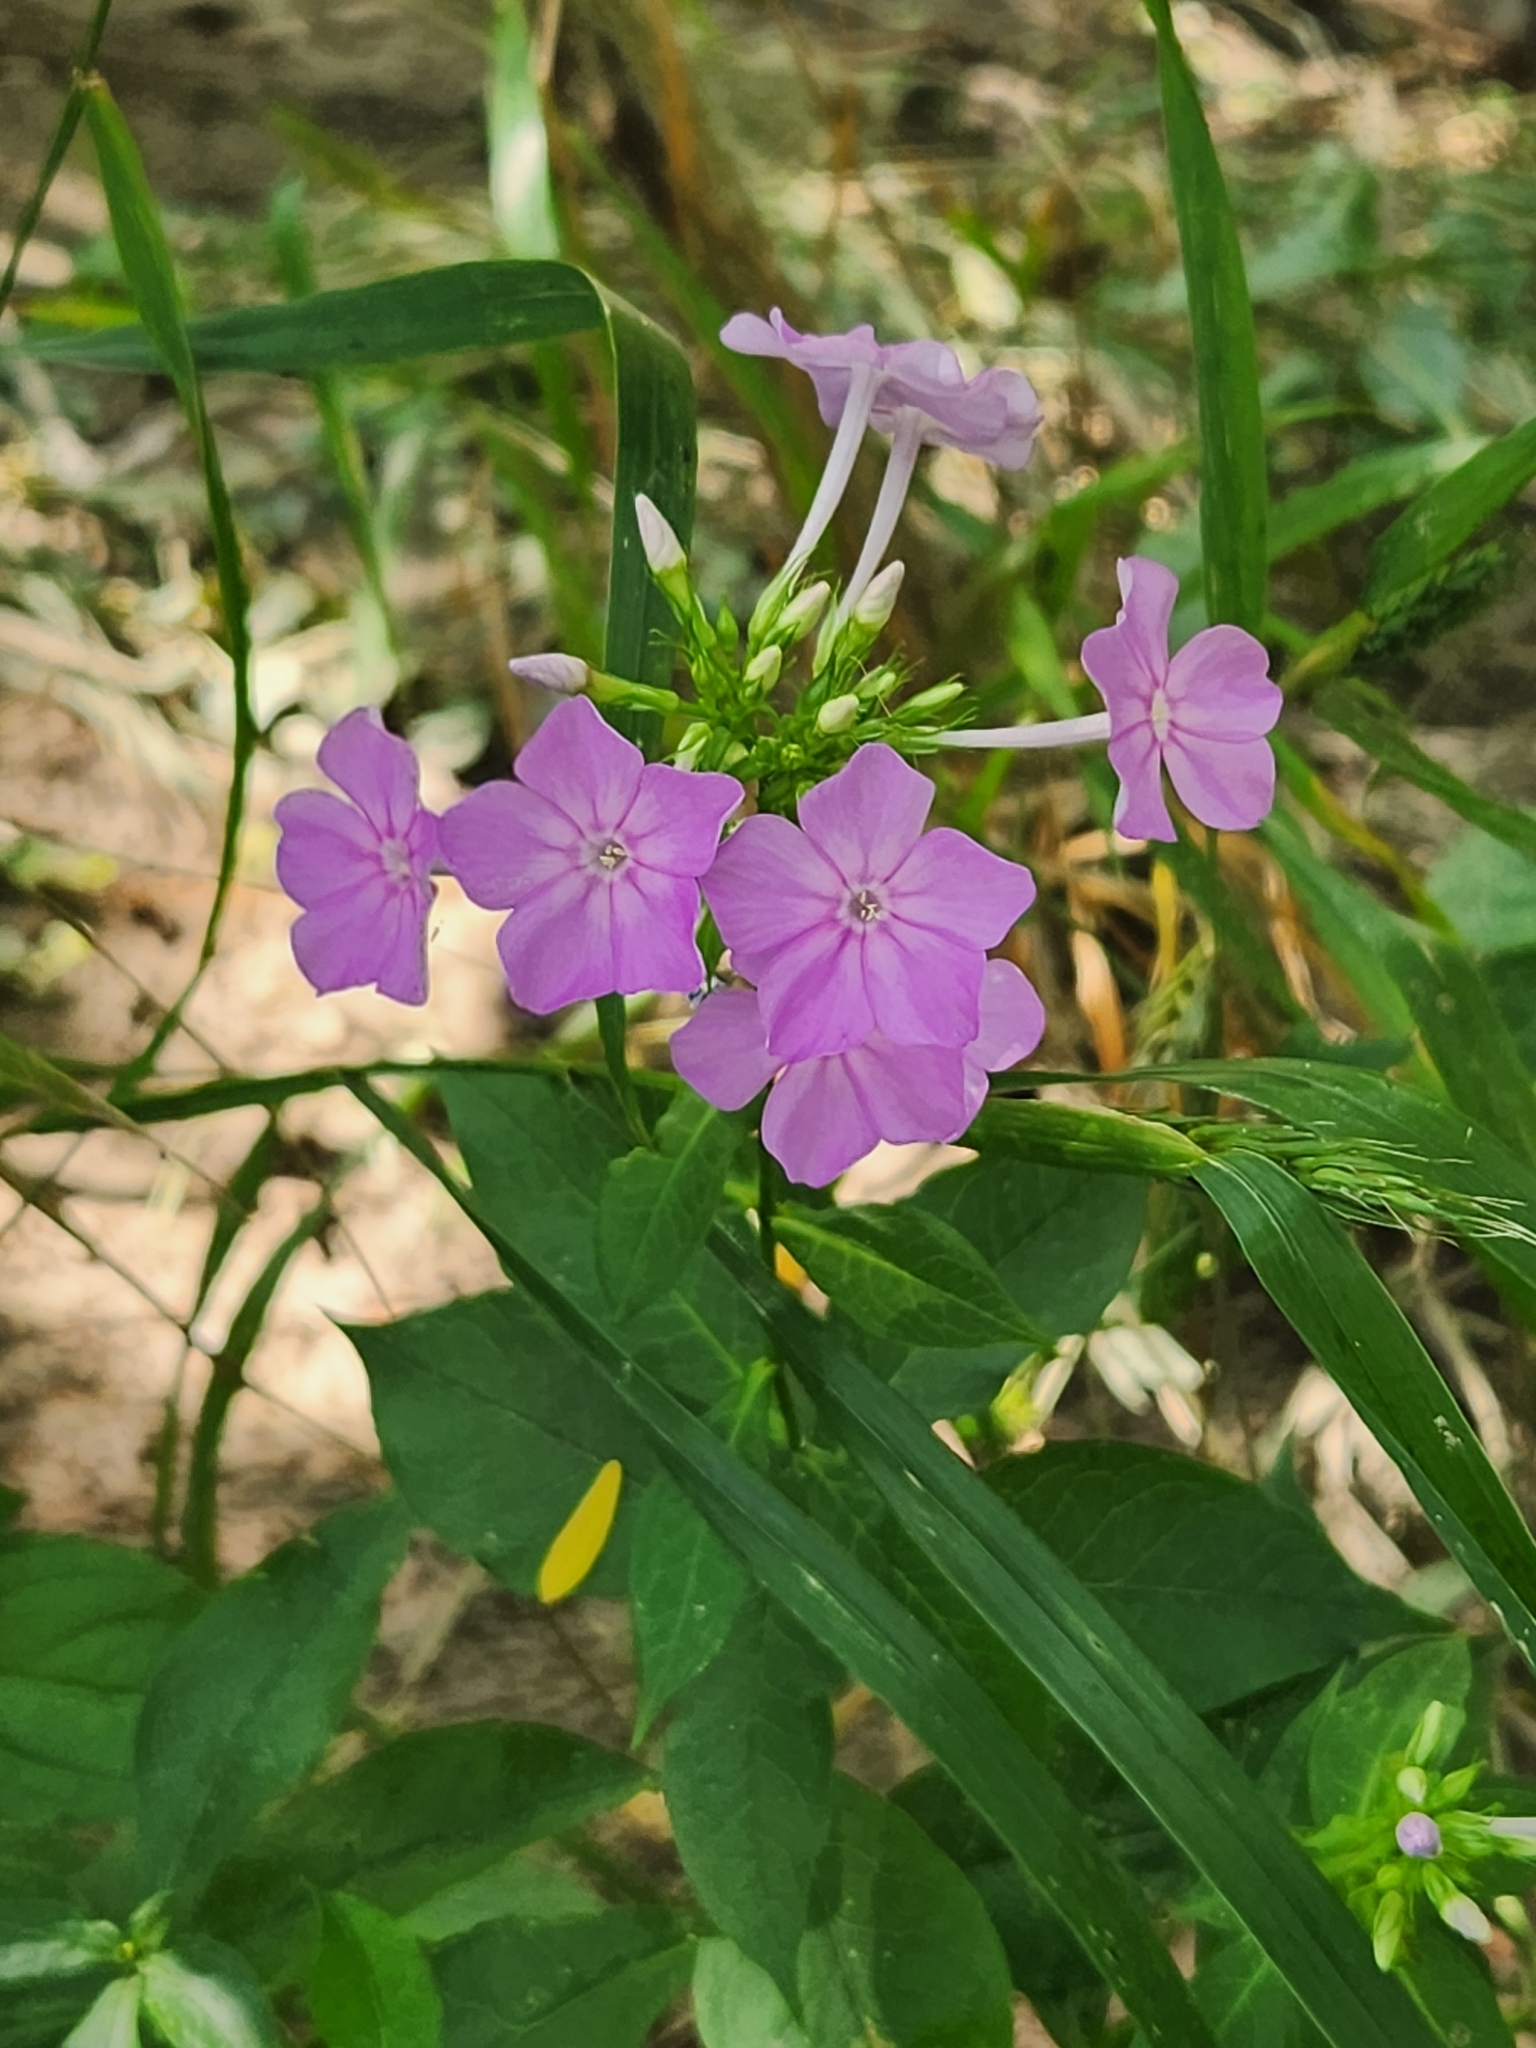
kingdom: Plantae
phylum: Tracheophyta
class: Magnoliopsida
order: Ericales
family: Polemoniaceae
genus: Phlox
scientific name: Phlox paniculata
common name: Fall phlox
